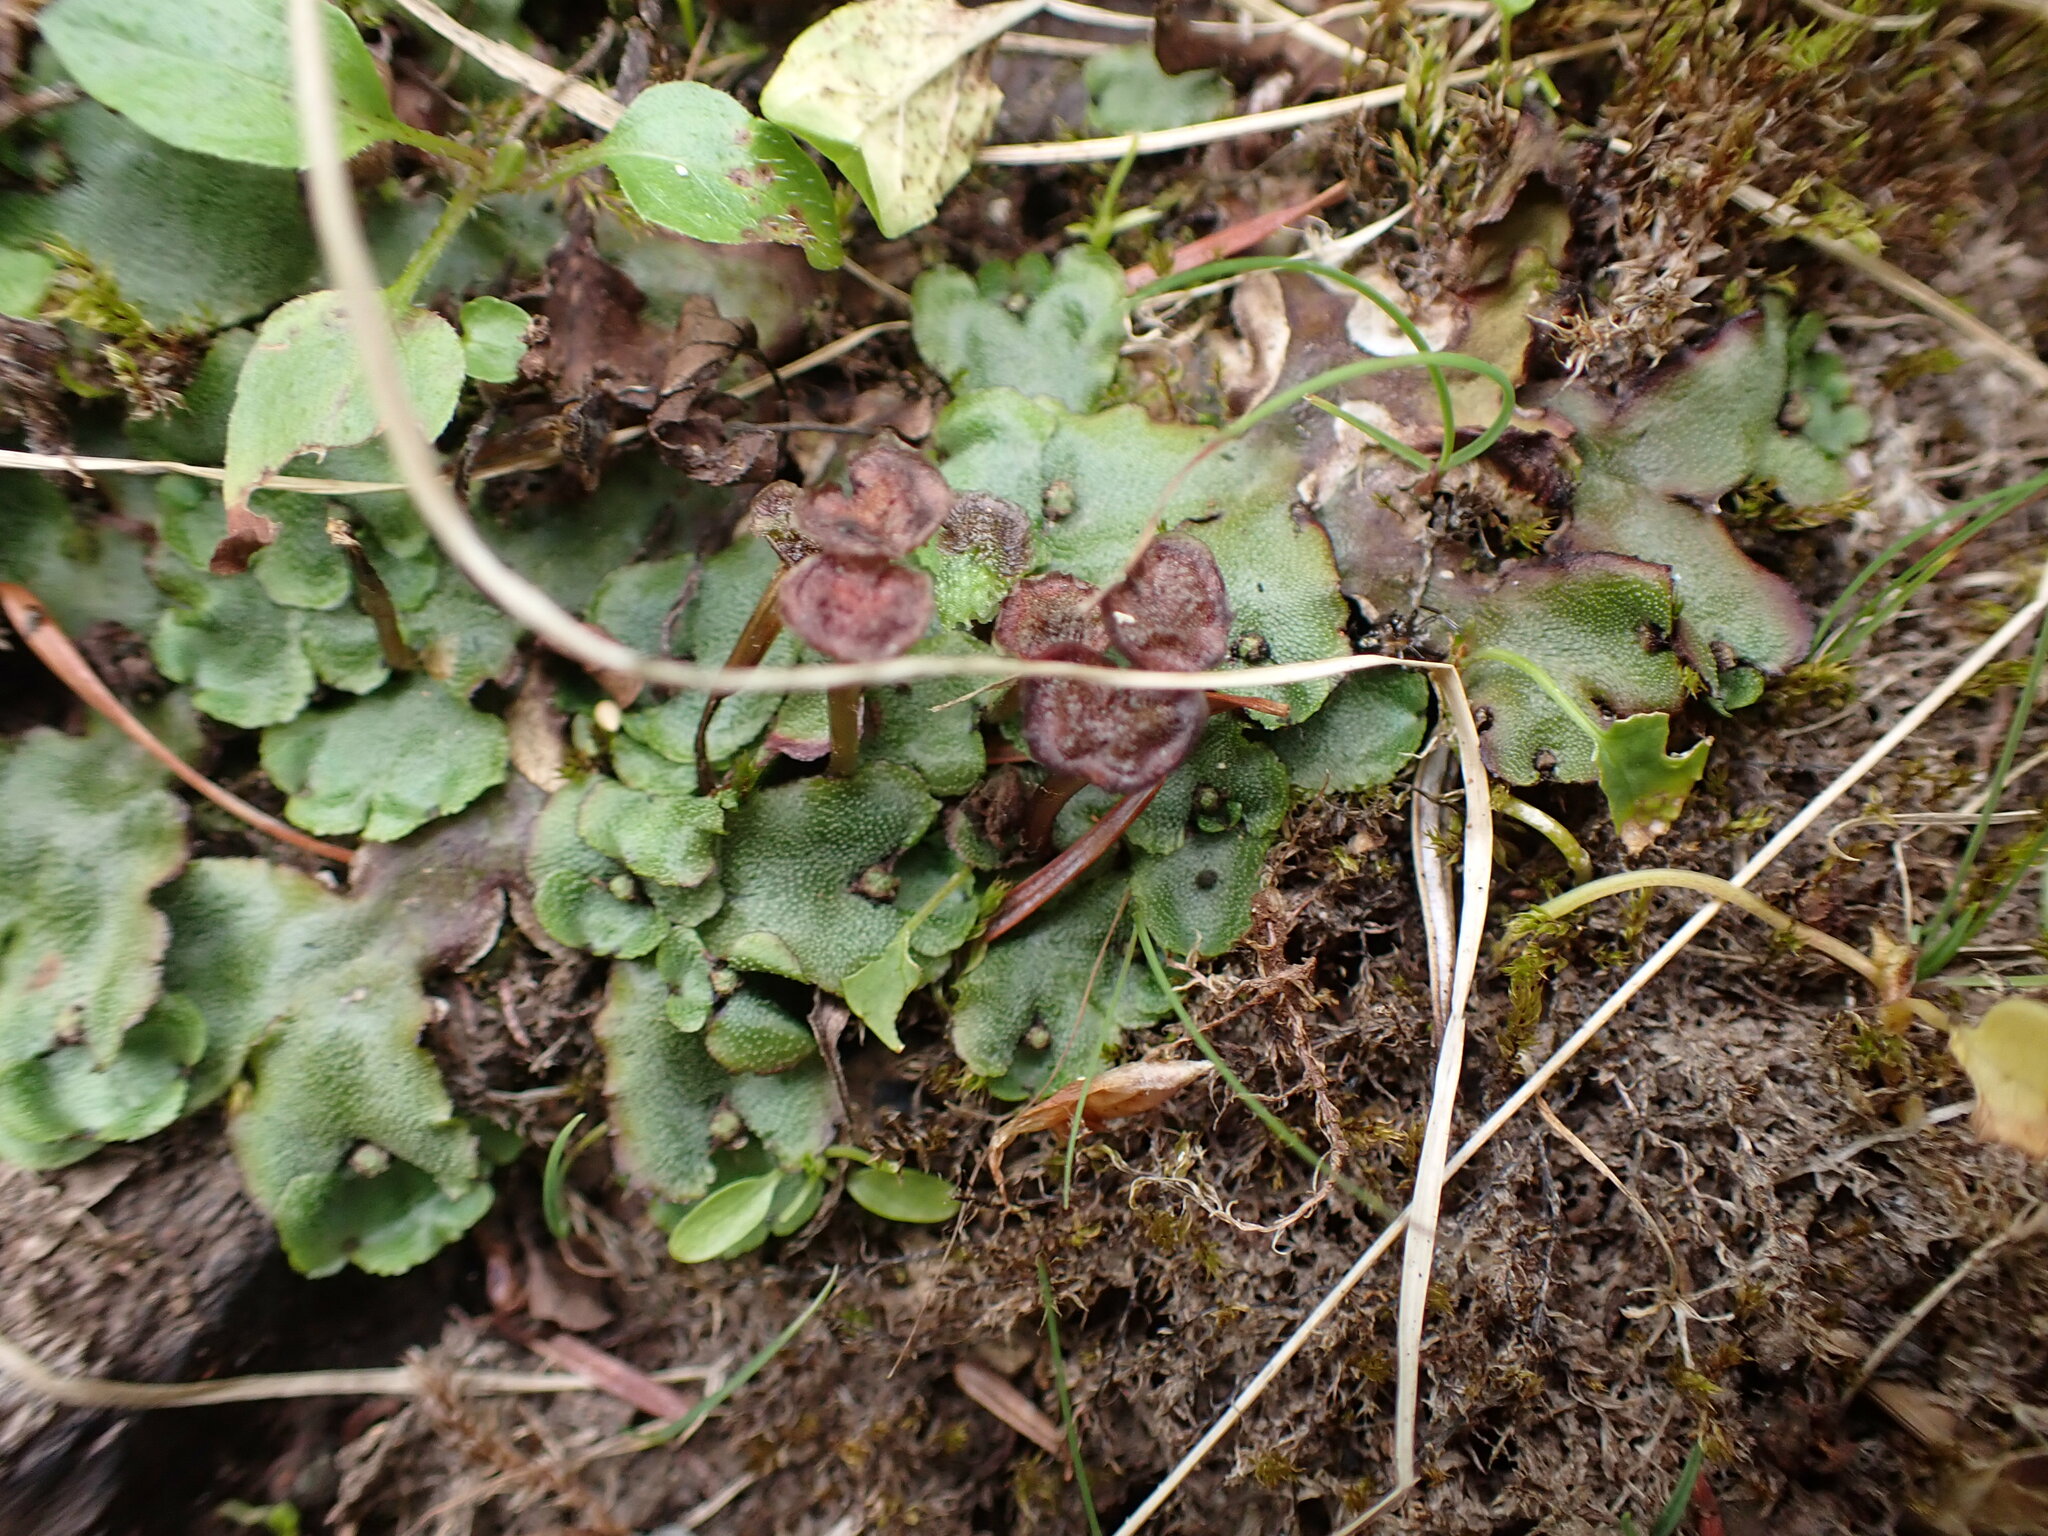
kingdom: Plantae
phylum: Marchantiophyta
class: Marchantiopsida
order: Marchantiales
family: Marchantiaceae
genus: Marchantia
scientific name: Marchantia quadrata
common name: Narrow mushroom-headed liverwort
